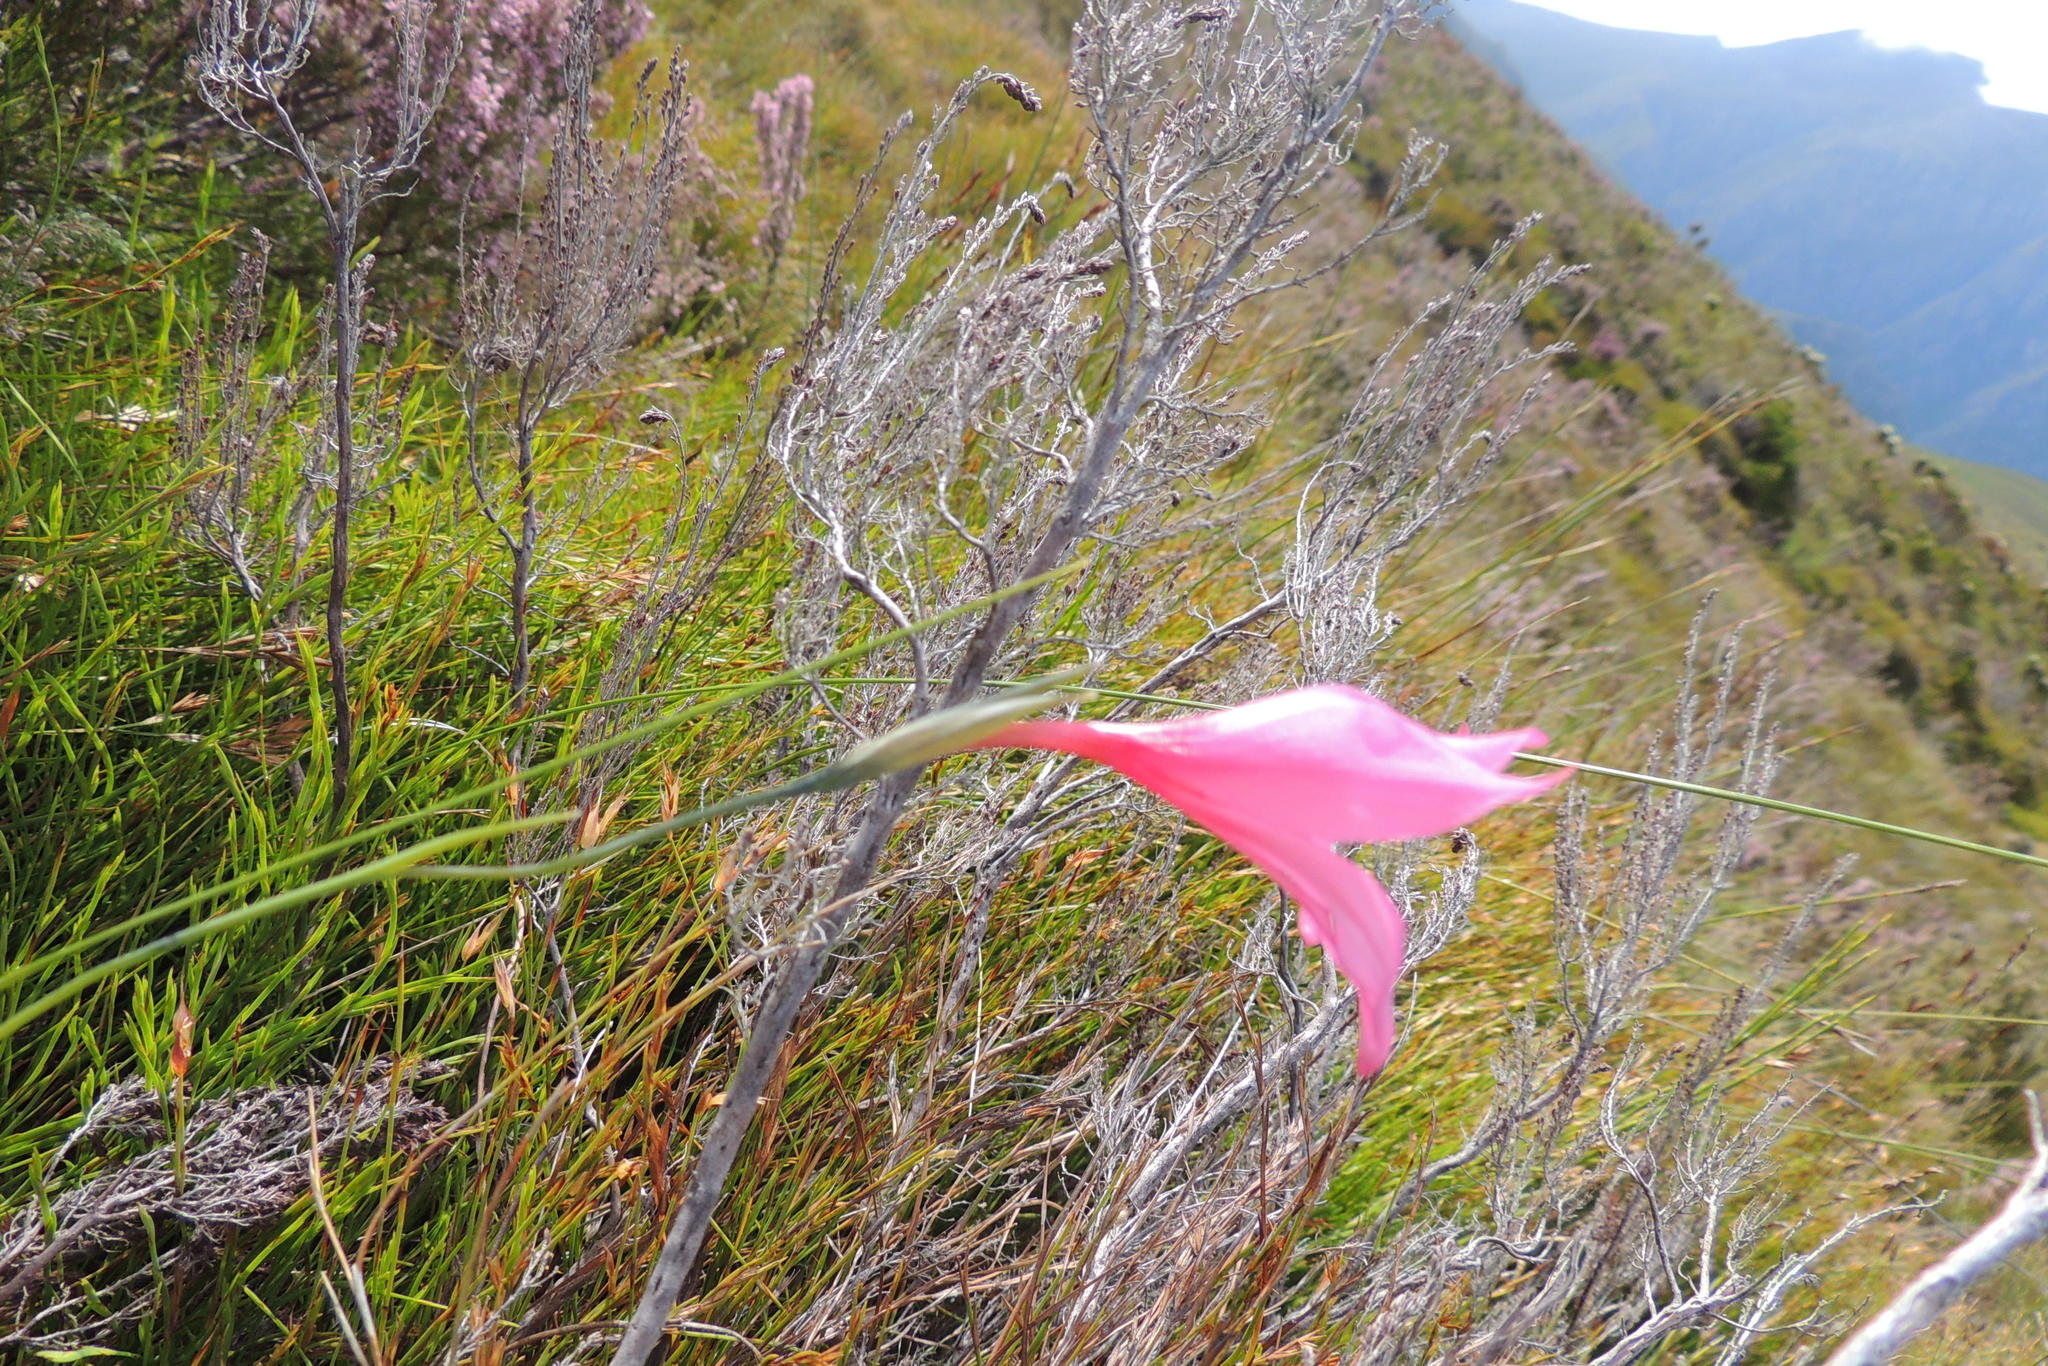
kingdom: Plantae
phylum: Tracheophyta
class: Liliopsida
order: Asparagales
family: Iridaceae
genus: Gladiolus
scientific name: Gladiolus oreocharis
